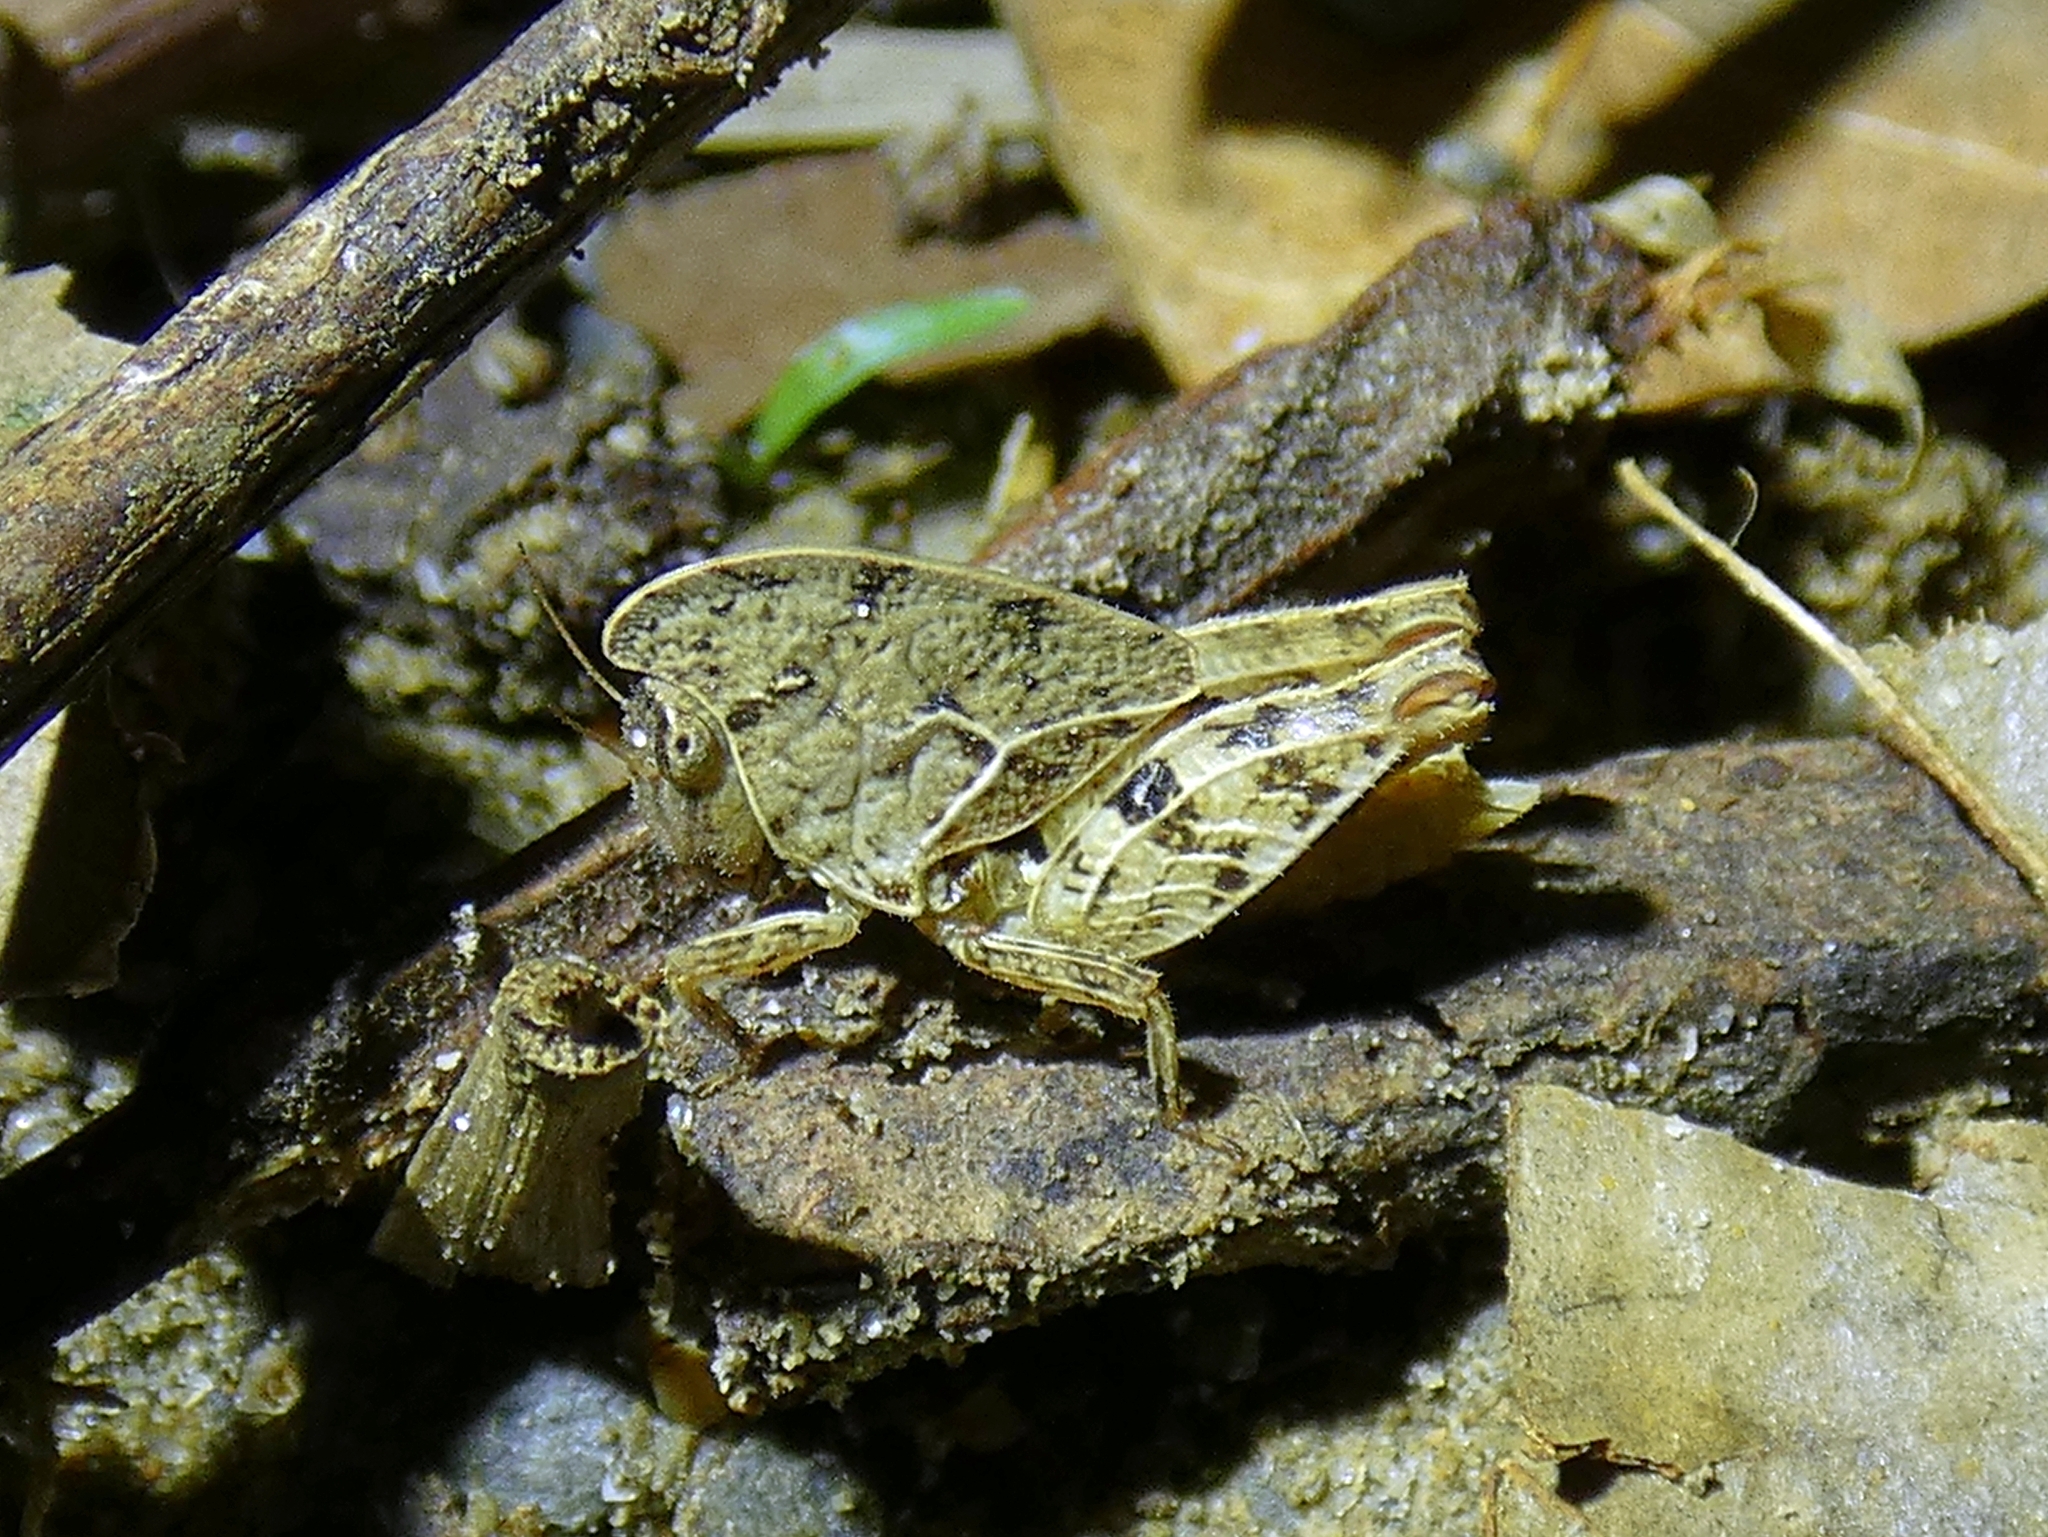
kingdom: Animalia
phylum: Arthropoda
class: Insecta
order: Orthoptera
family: Tetrigidae
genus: Selivinga
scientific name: Selivinga tribulata
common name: Tribulation helmed groundhopper
